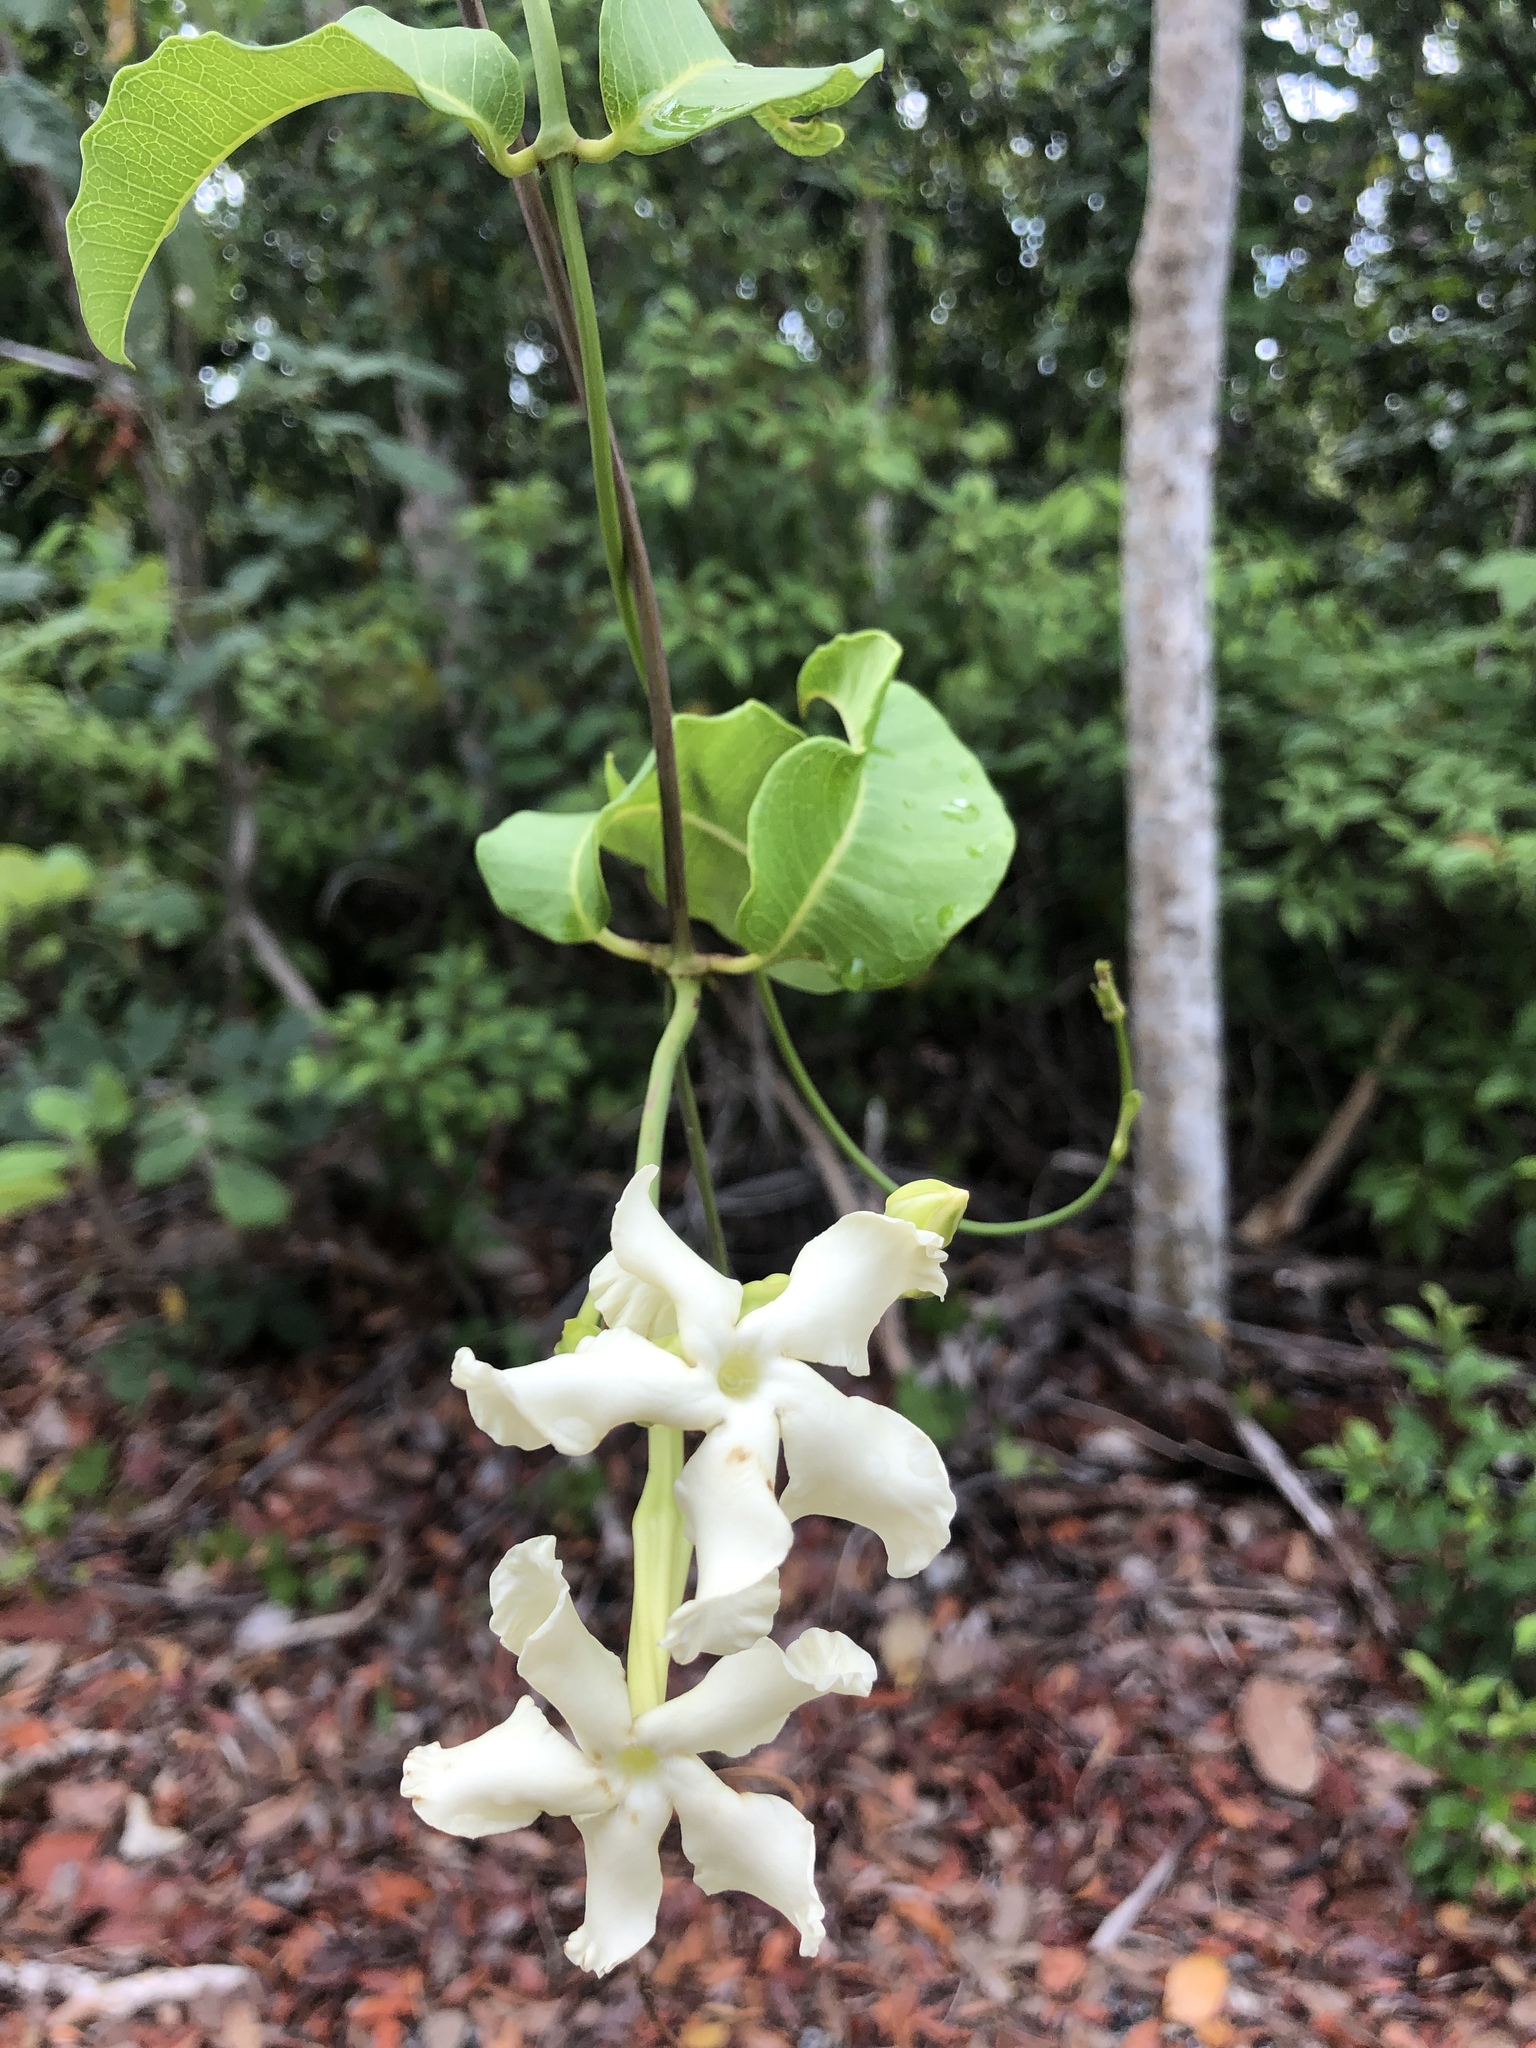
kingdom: Plantae
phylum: Tracheophyta
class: Magnoliopsida
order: Gentianales
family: Apocynaceae
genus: Echites
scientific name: Echites umbellatus
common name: Devil's potato
